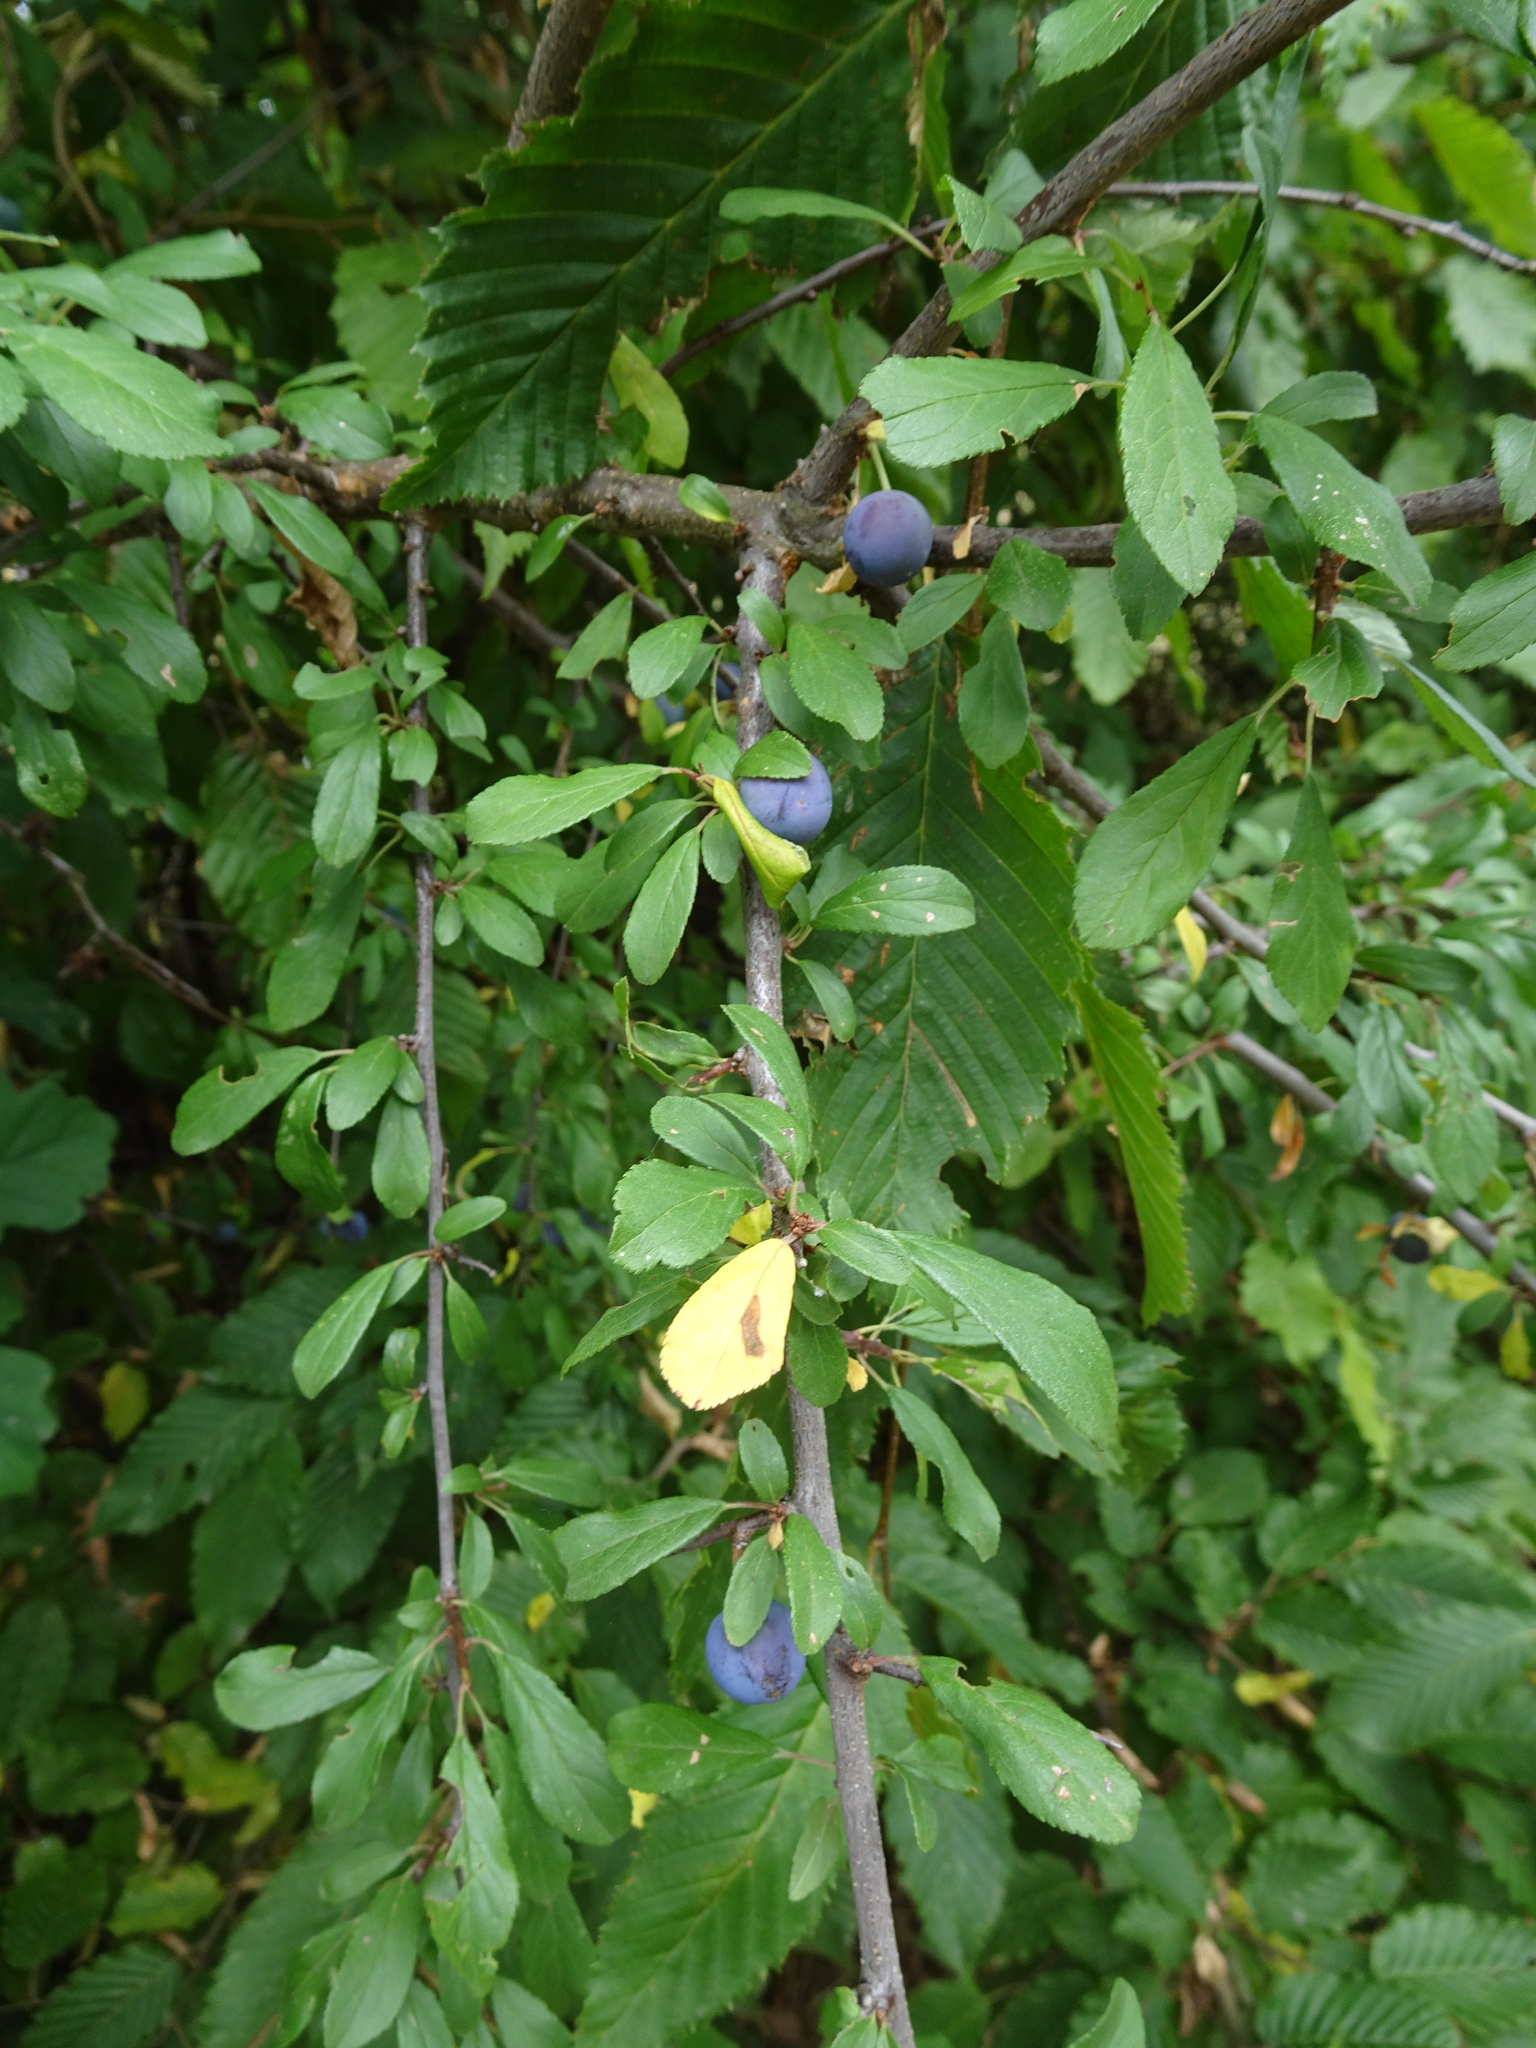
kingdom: Plantae
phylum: Tracheophyta
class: Magnoliopsida
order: Rosales
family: Rosaceae
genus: Prunus
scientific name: Prunus spinosa
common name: Blackthorn
